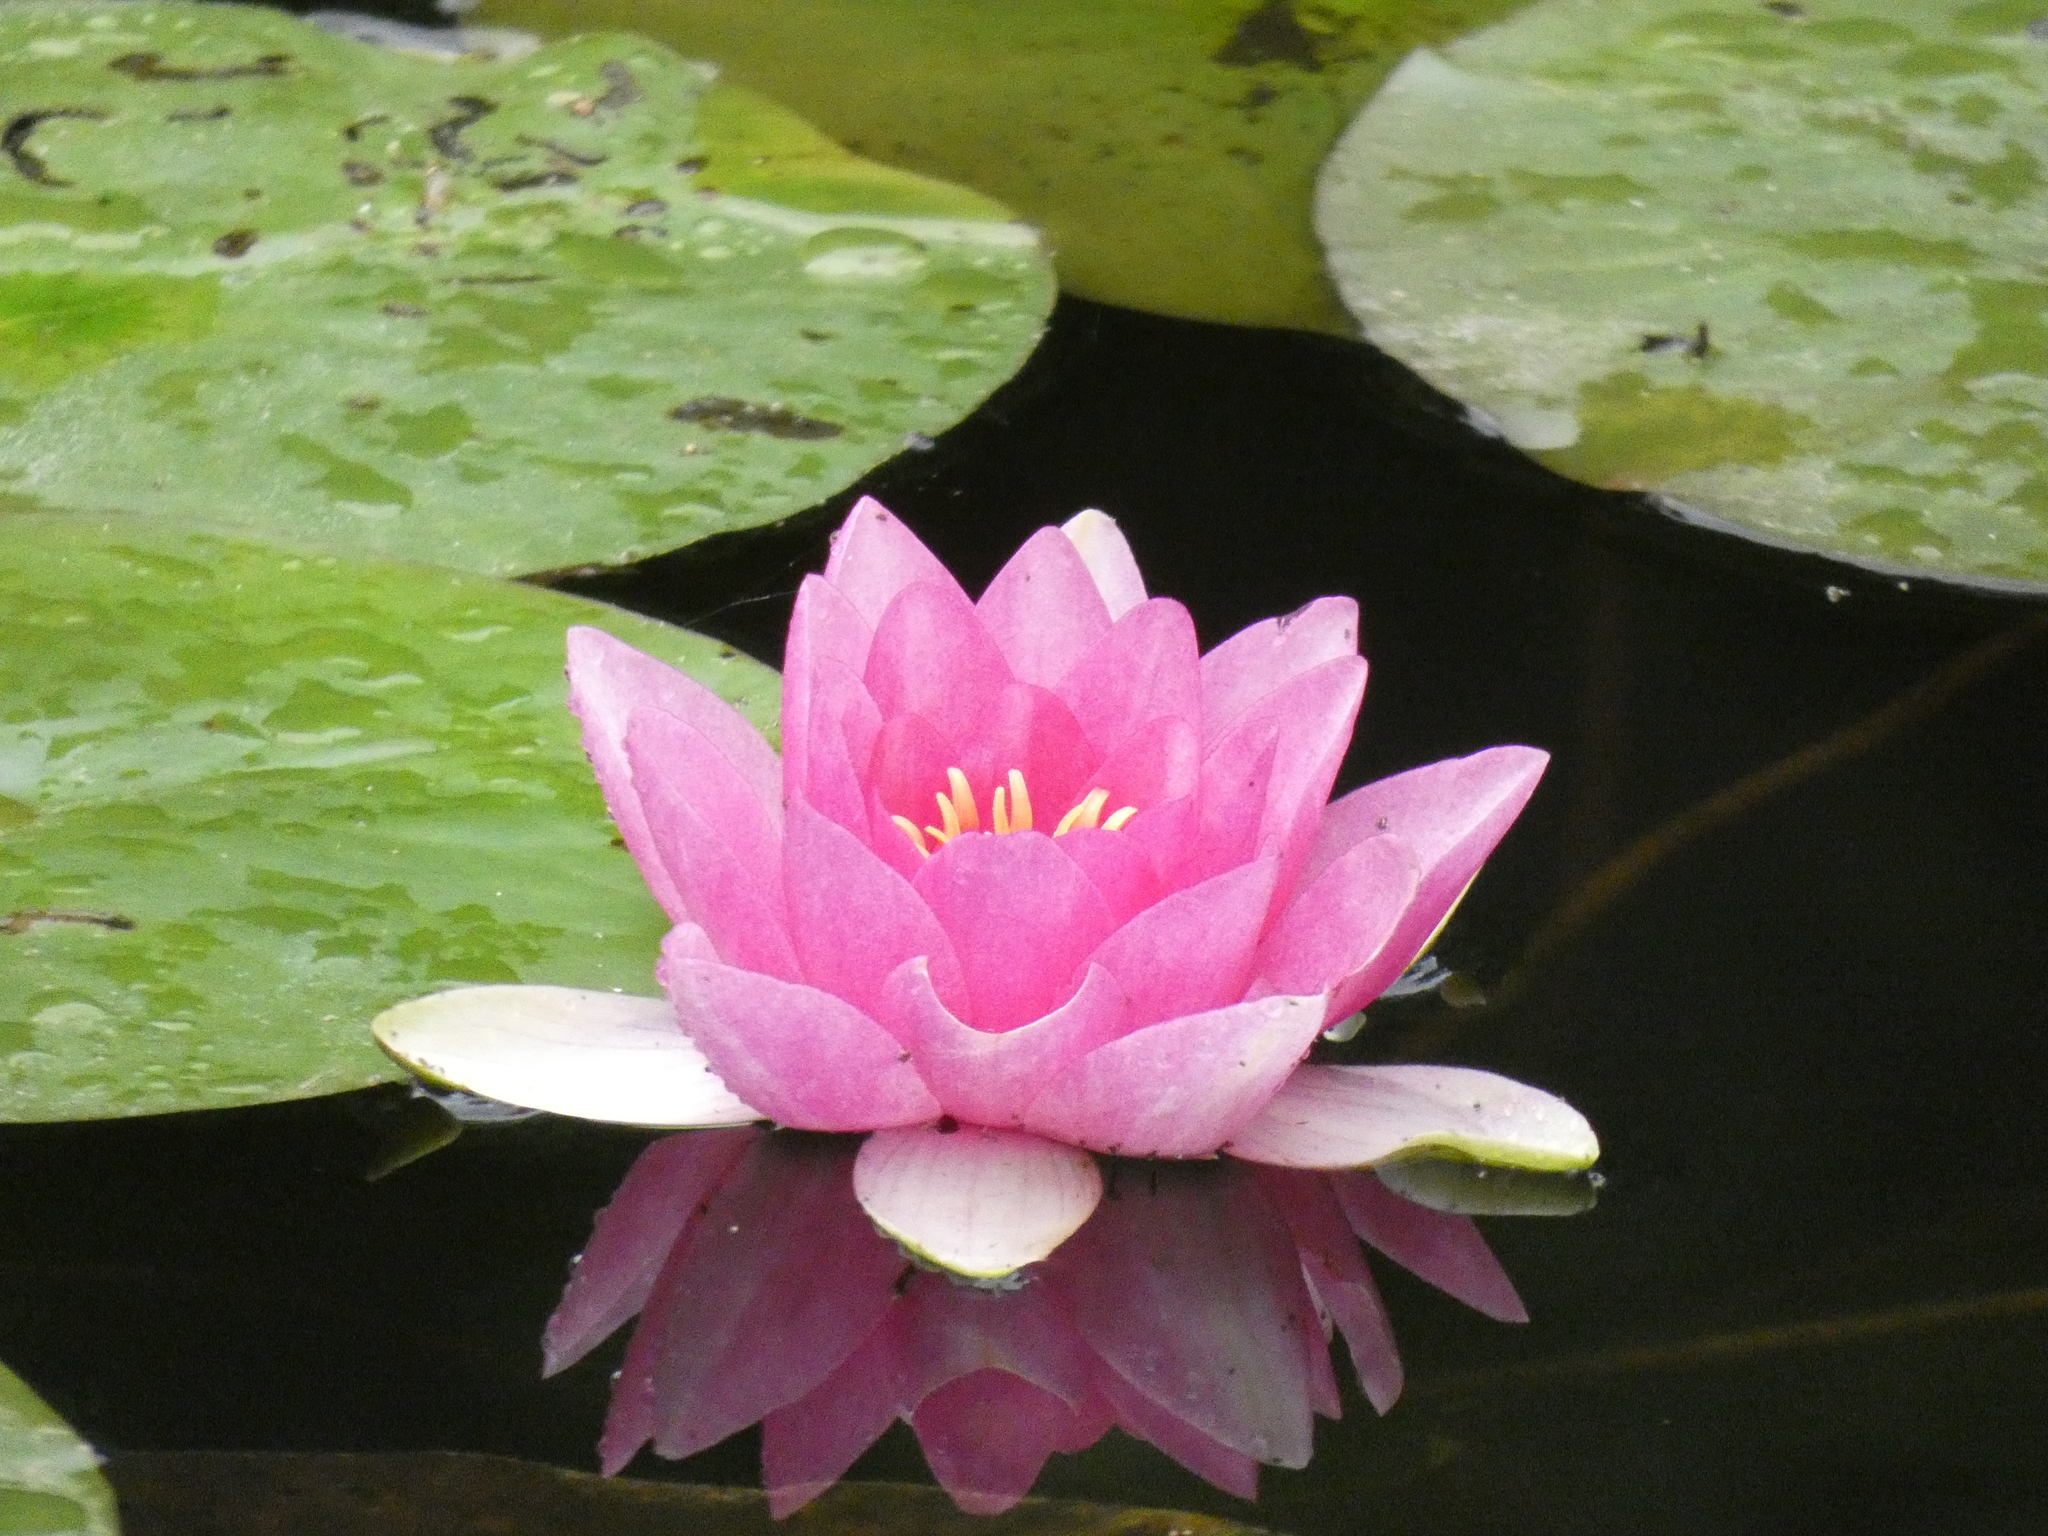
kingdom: Plantae
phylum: Tracheophyta
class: Magnoliopsida
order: Nymphaeales
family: Nymphaeaceae
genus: Nymphaea
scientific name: Nymphaea khurooi
